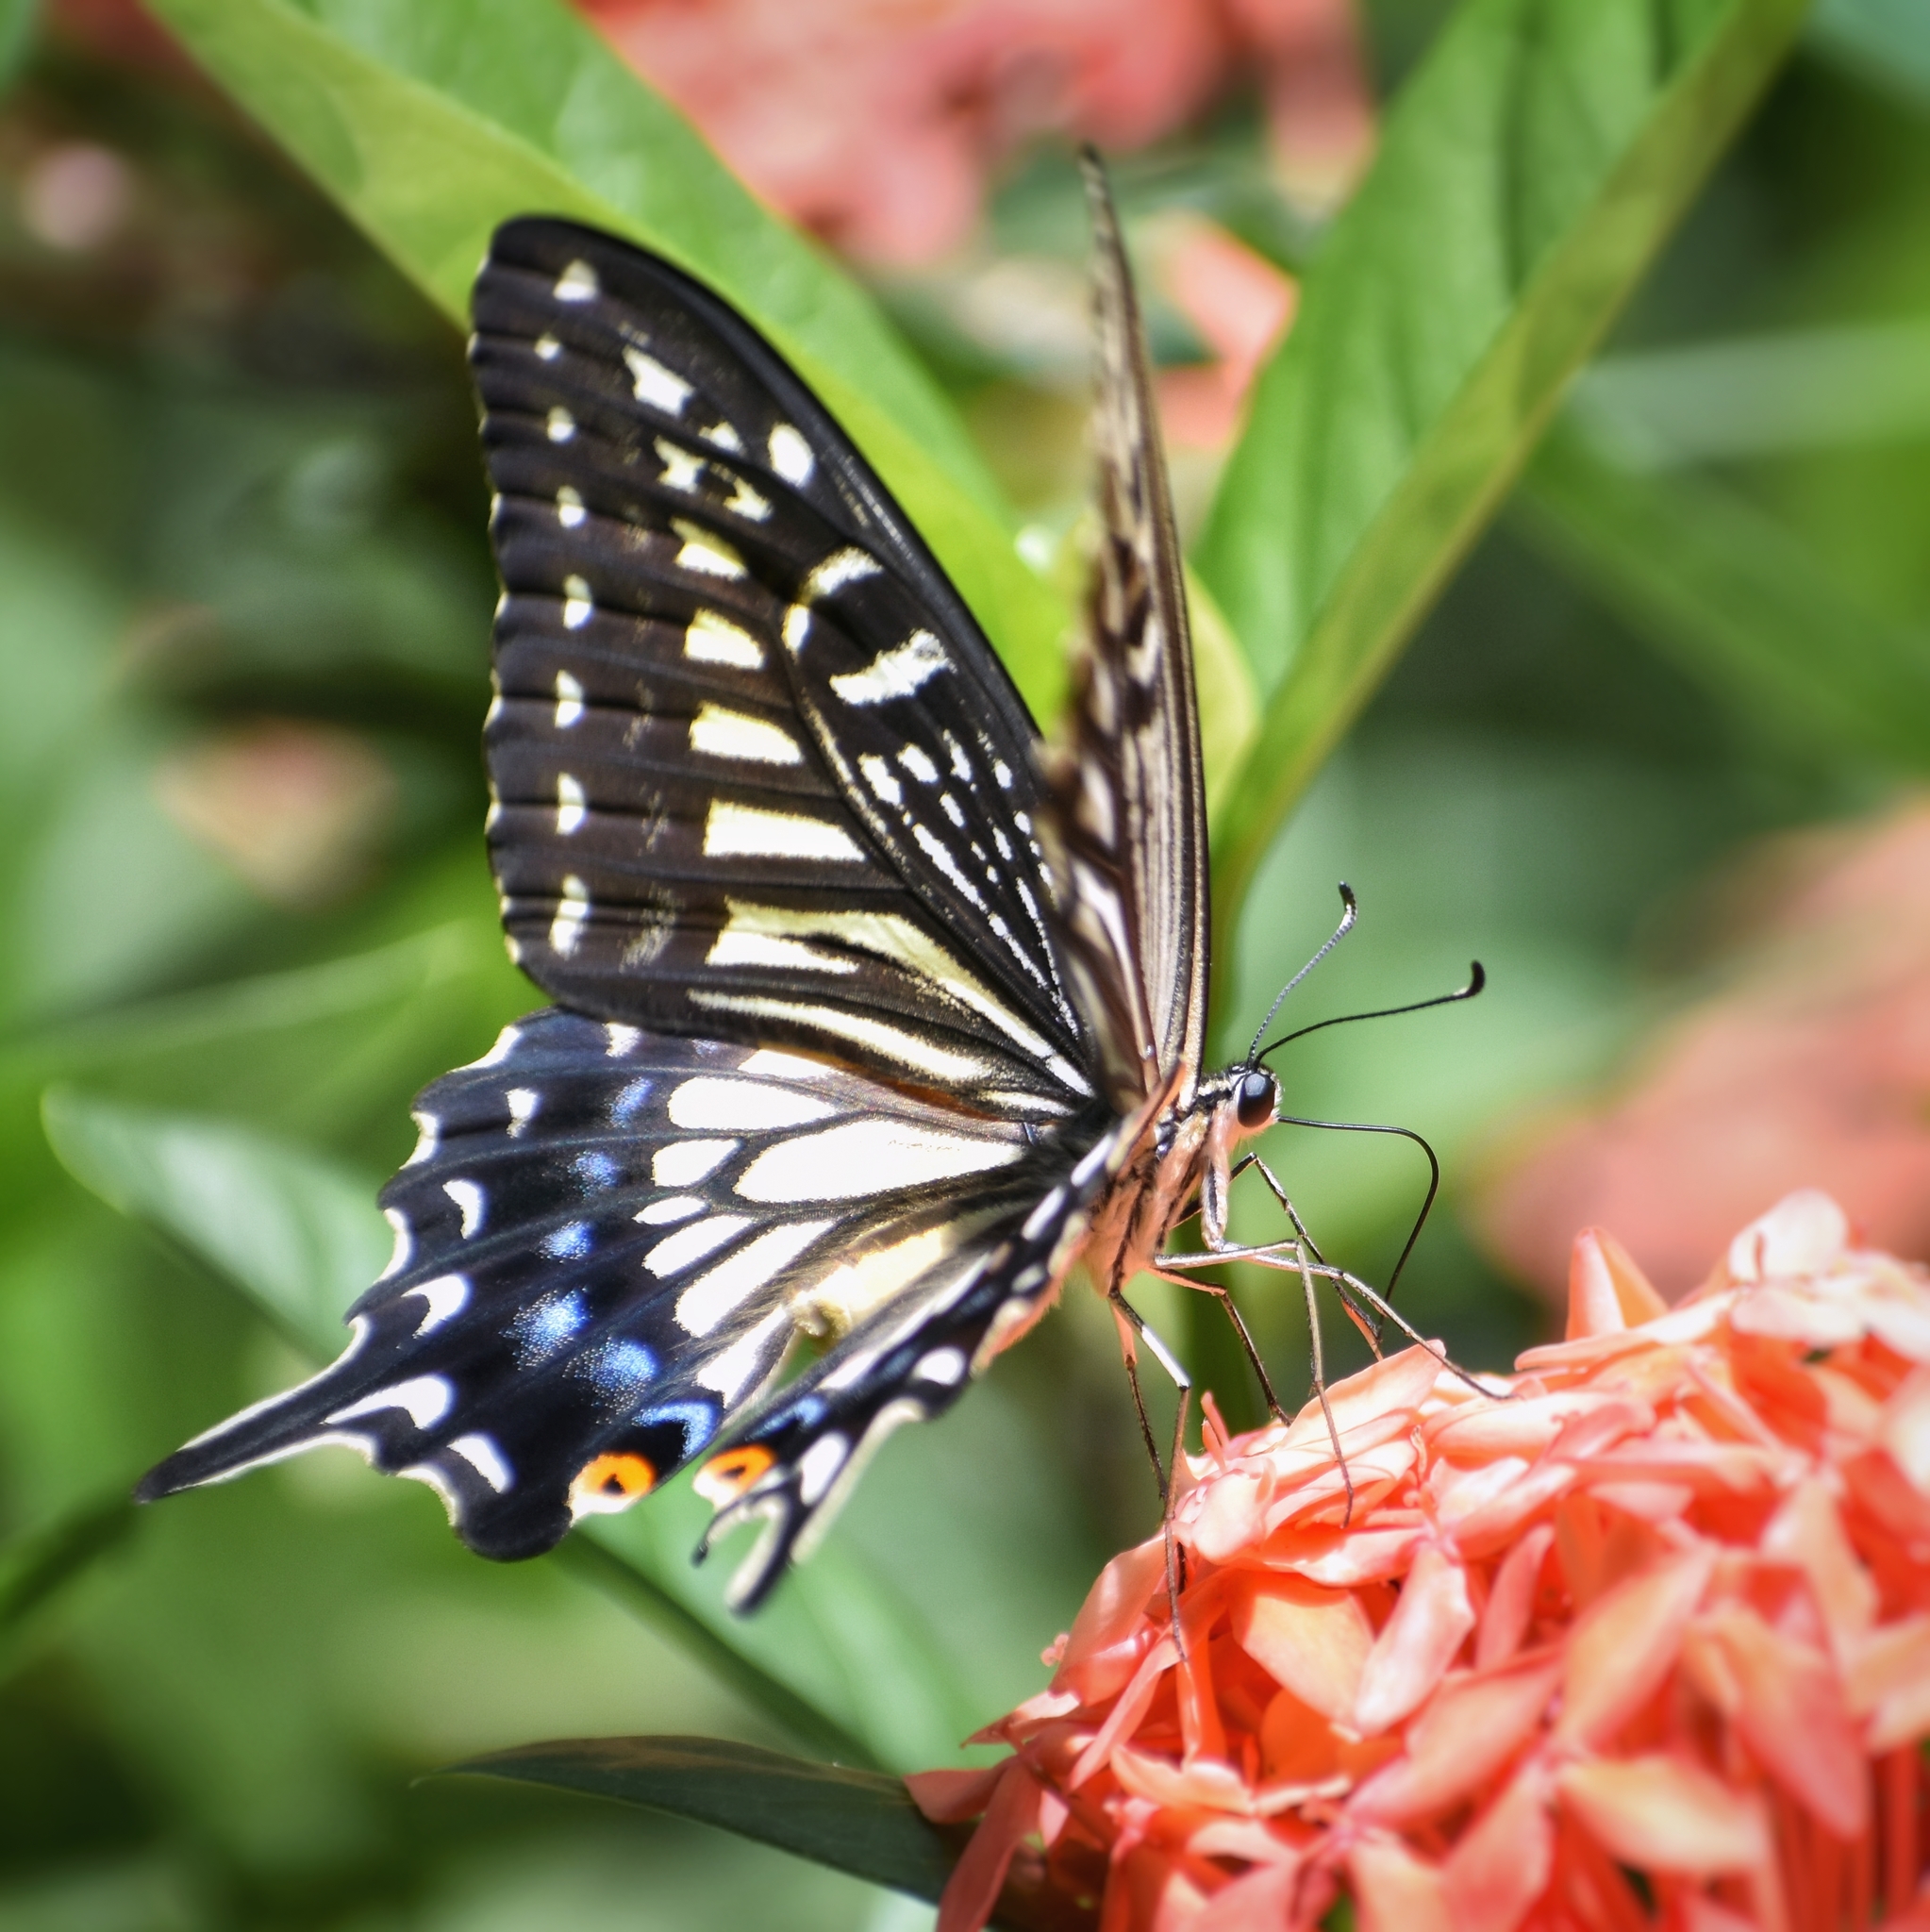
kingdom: Animalia
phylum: Arthropoda
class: Insecta
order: Lepidoptera
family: Papilionidae
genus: Papilio
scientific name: Papilio xuthus
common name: Asian swallowtail
